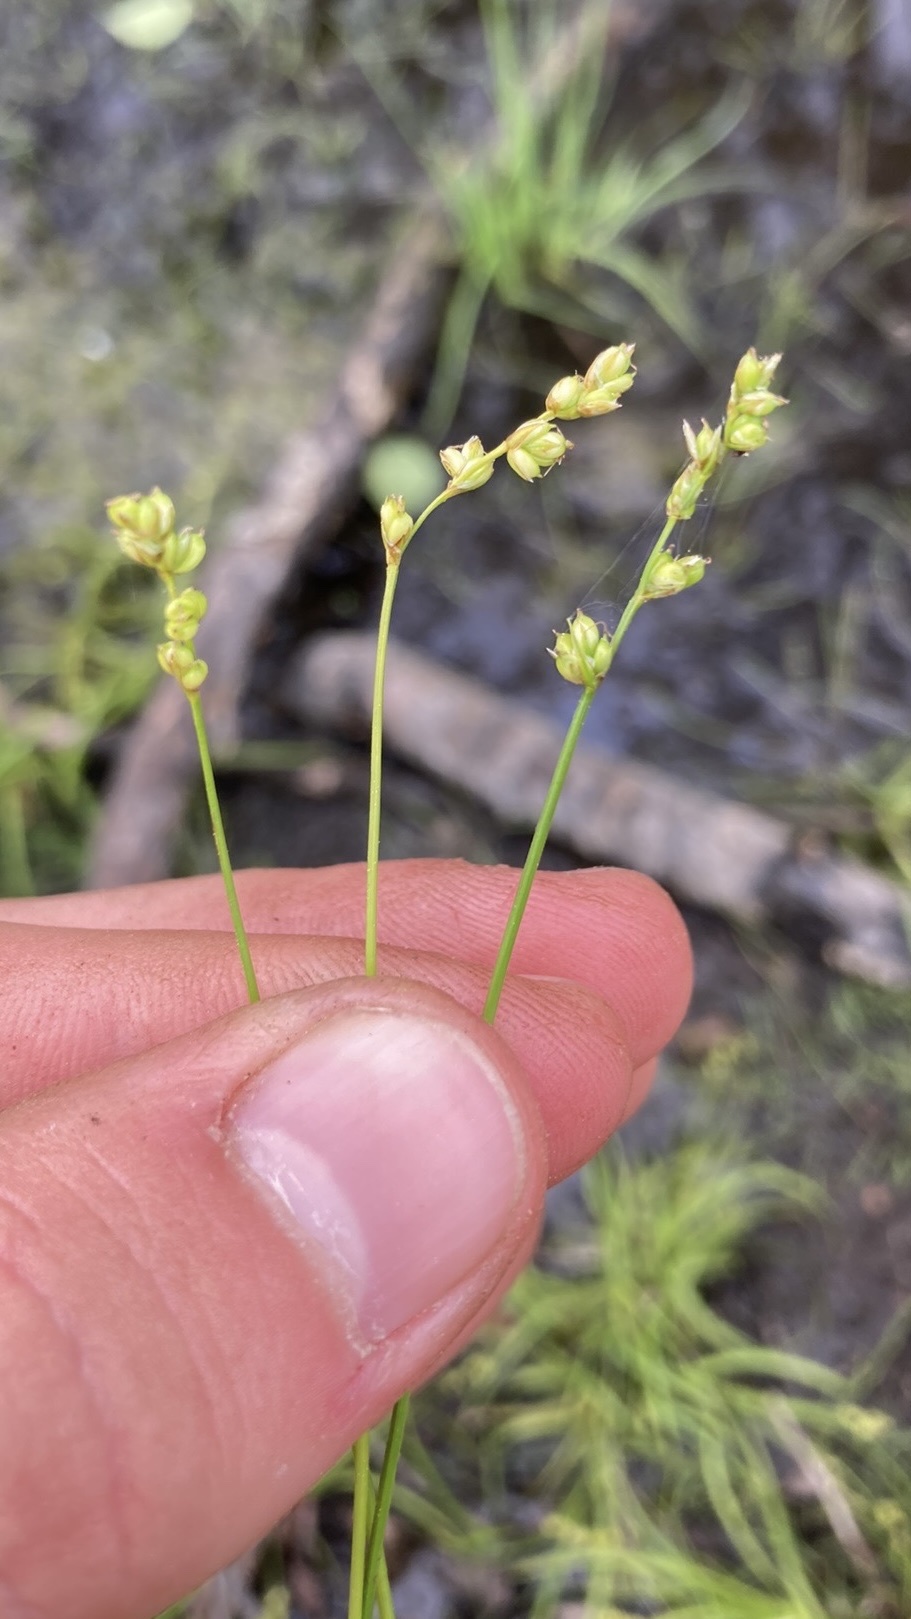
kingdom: Plantae
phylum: Tracheophyta
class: Liliopsida
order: Poales
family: Cyperaceae
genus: Carex
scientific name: Carex disperma
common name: Short-leaved sedge
